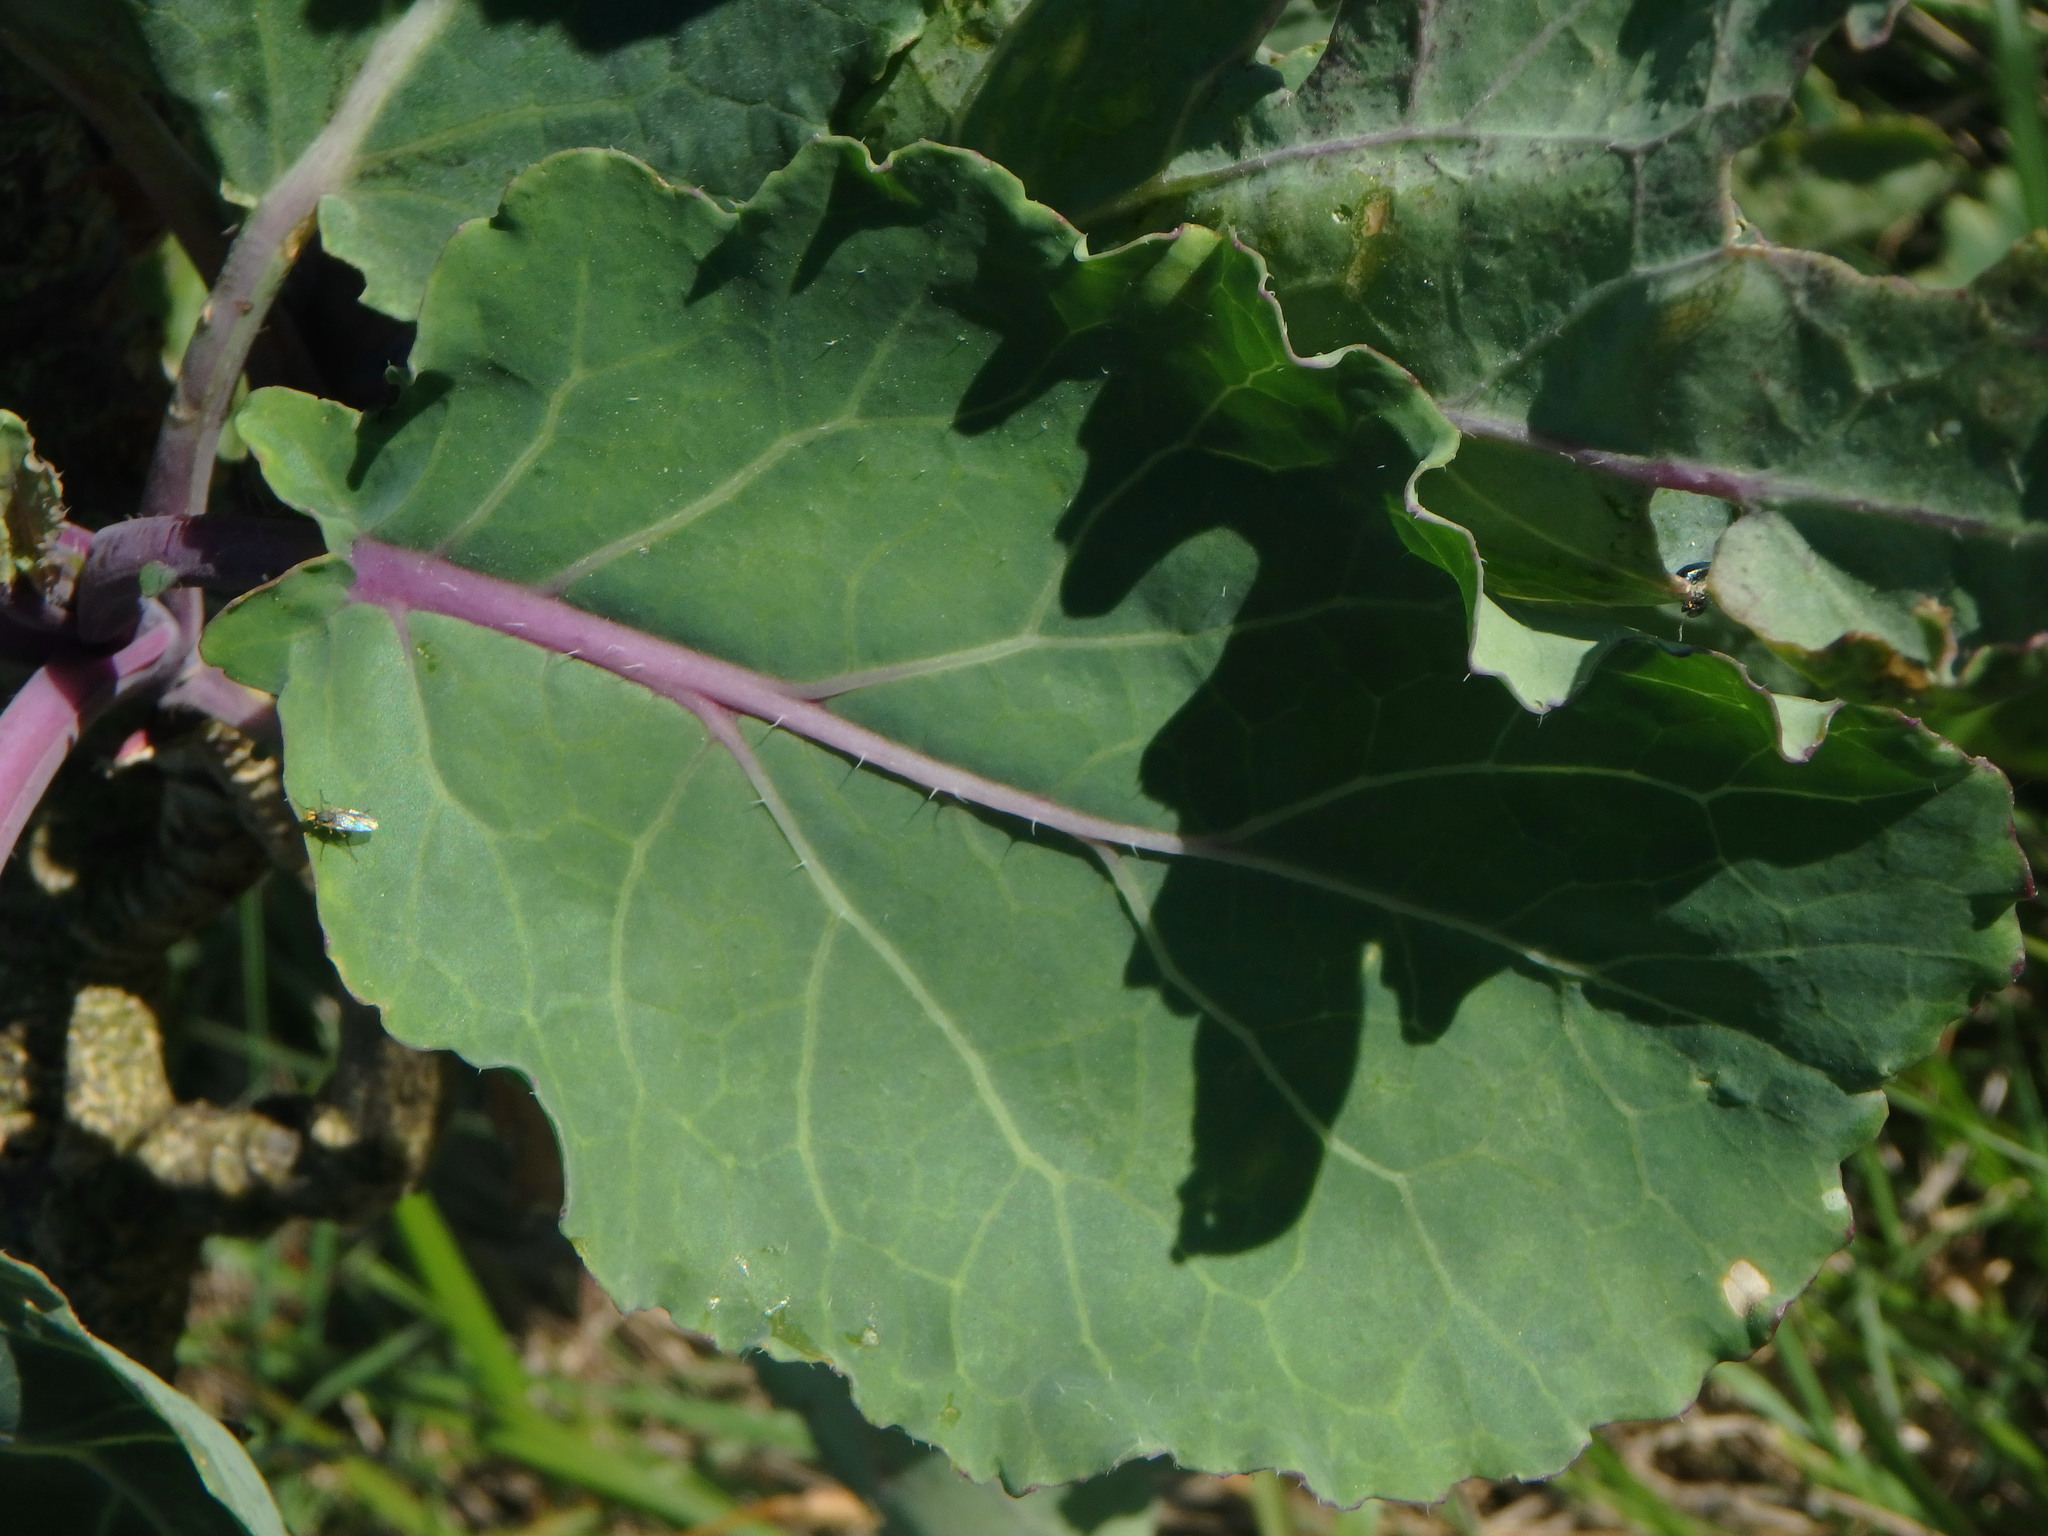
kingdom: Plantae
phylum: Tracheophyta
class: Magnoliopsida
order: Brassicales
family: Brassicaceae
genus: Brassica
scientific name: Brassica oleracea
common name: Cabbage
